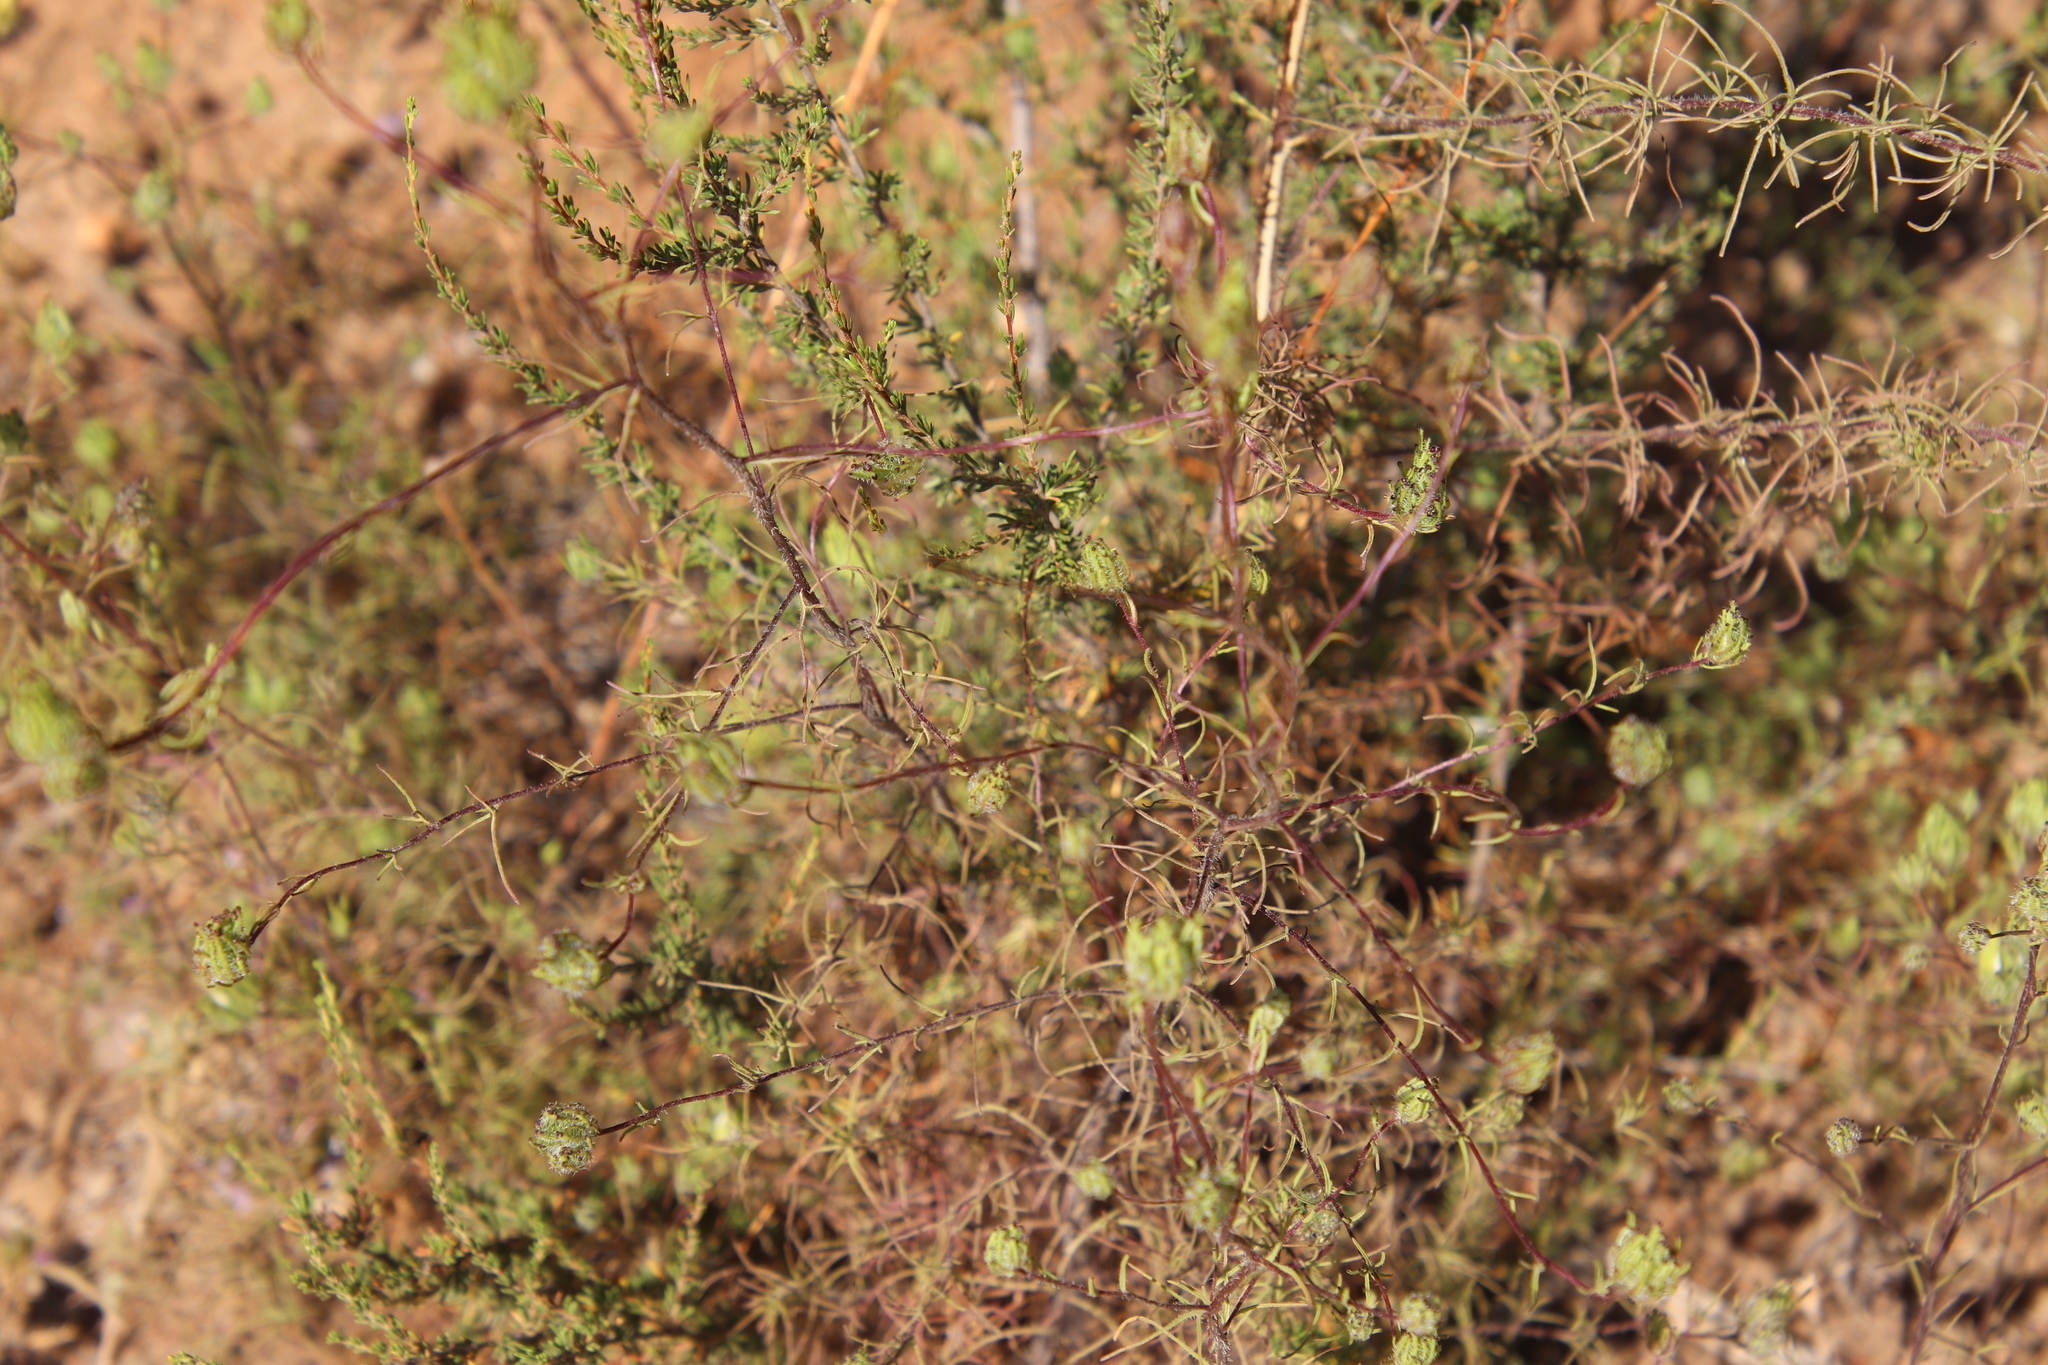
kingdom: Plantae
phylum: Tracheophyta
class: Magnoliopsida
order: Lamiales
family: Orobanchaceae
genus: Cordylanthus
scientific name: Cordylanthus rigidus
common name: Stiff-branch bird's-beak
